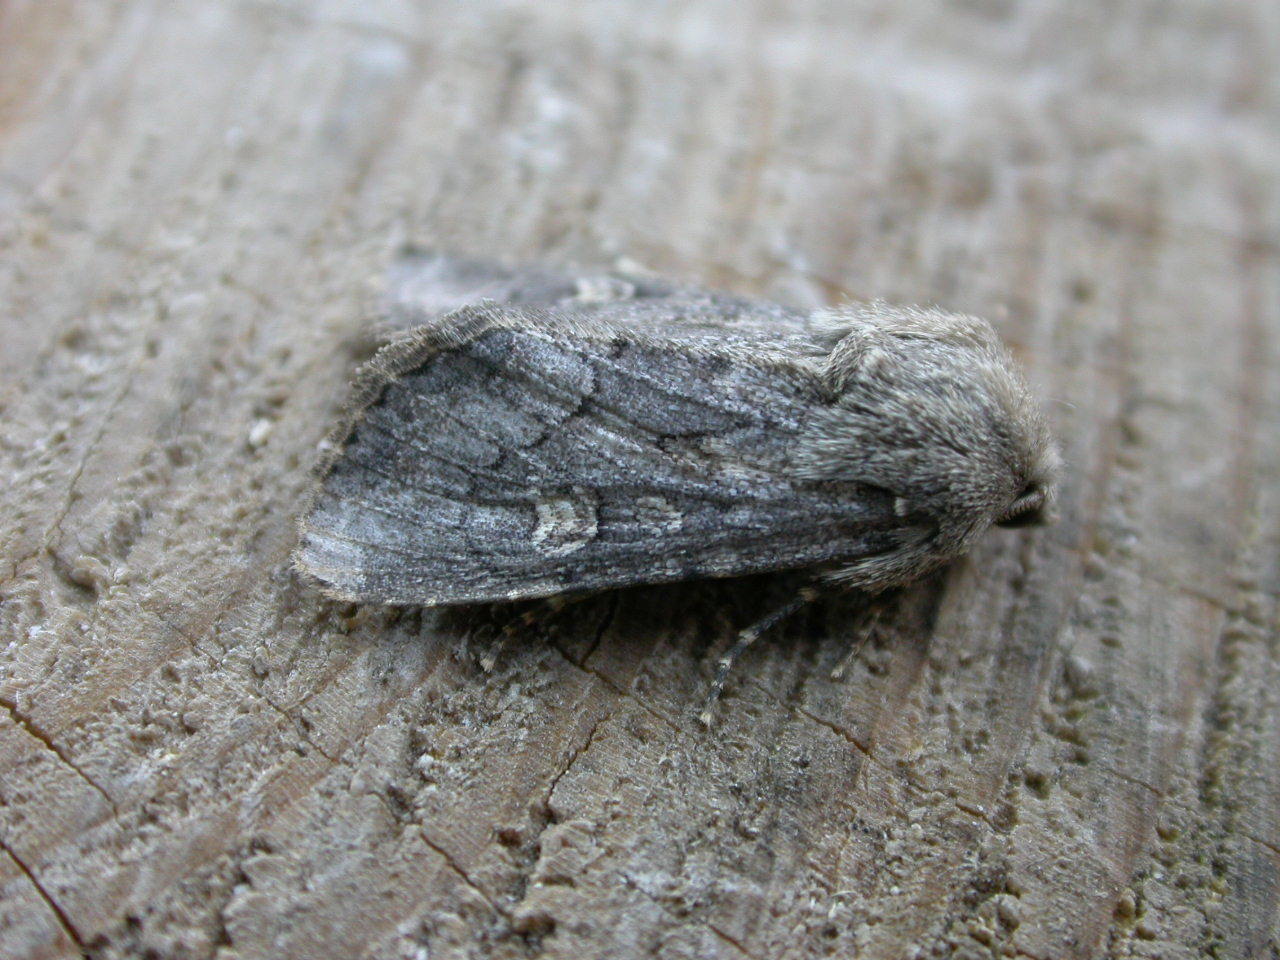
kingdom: Animalia
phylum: Arthropoda
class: Insecta
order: Lepidoptera
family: Noctuidae
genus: Luperina
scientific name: Luperina testacea
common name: Flounced rustic
